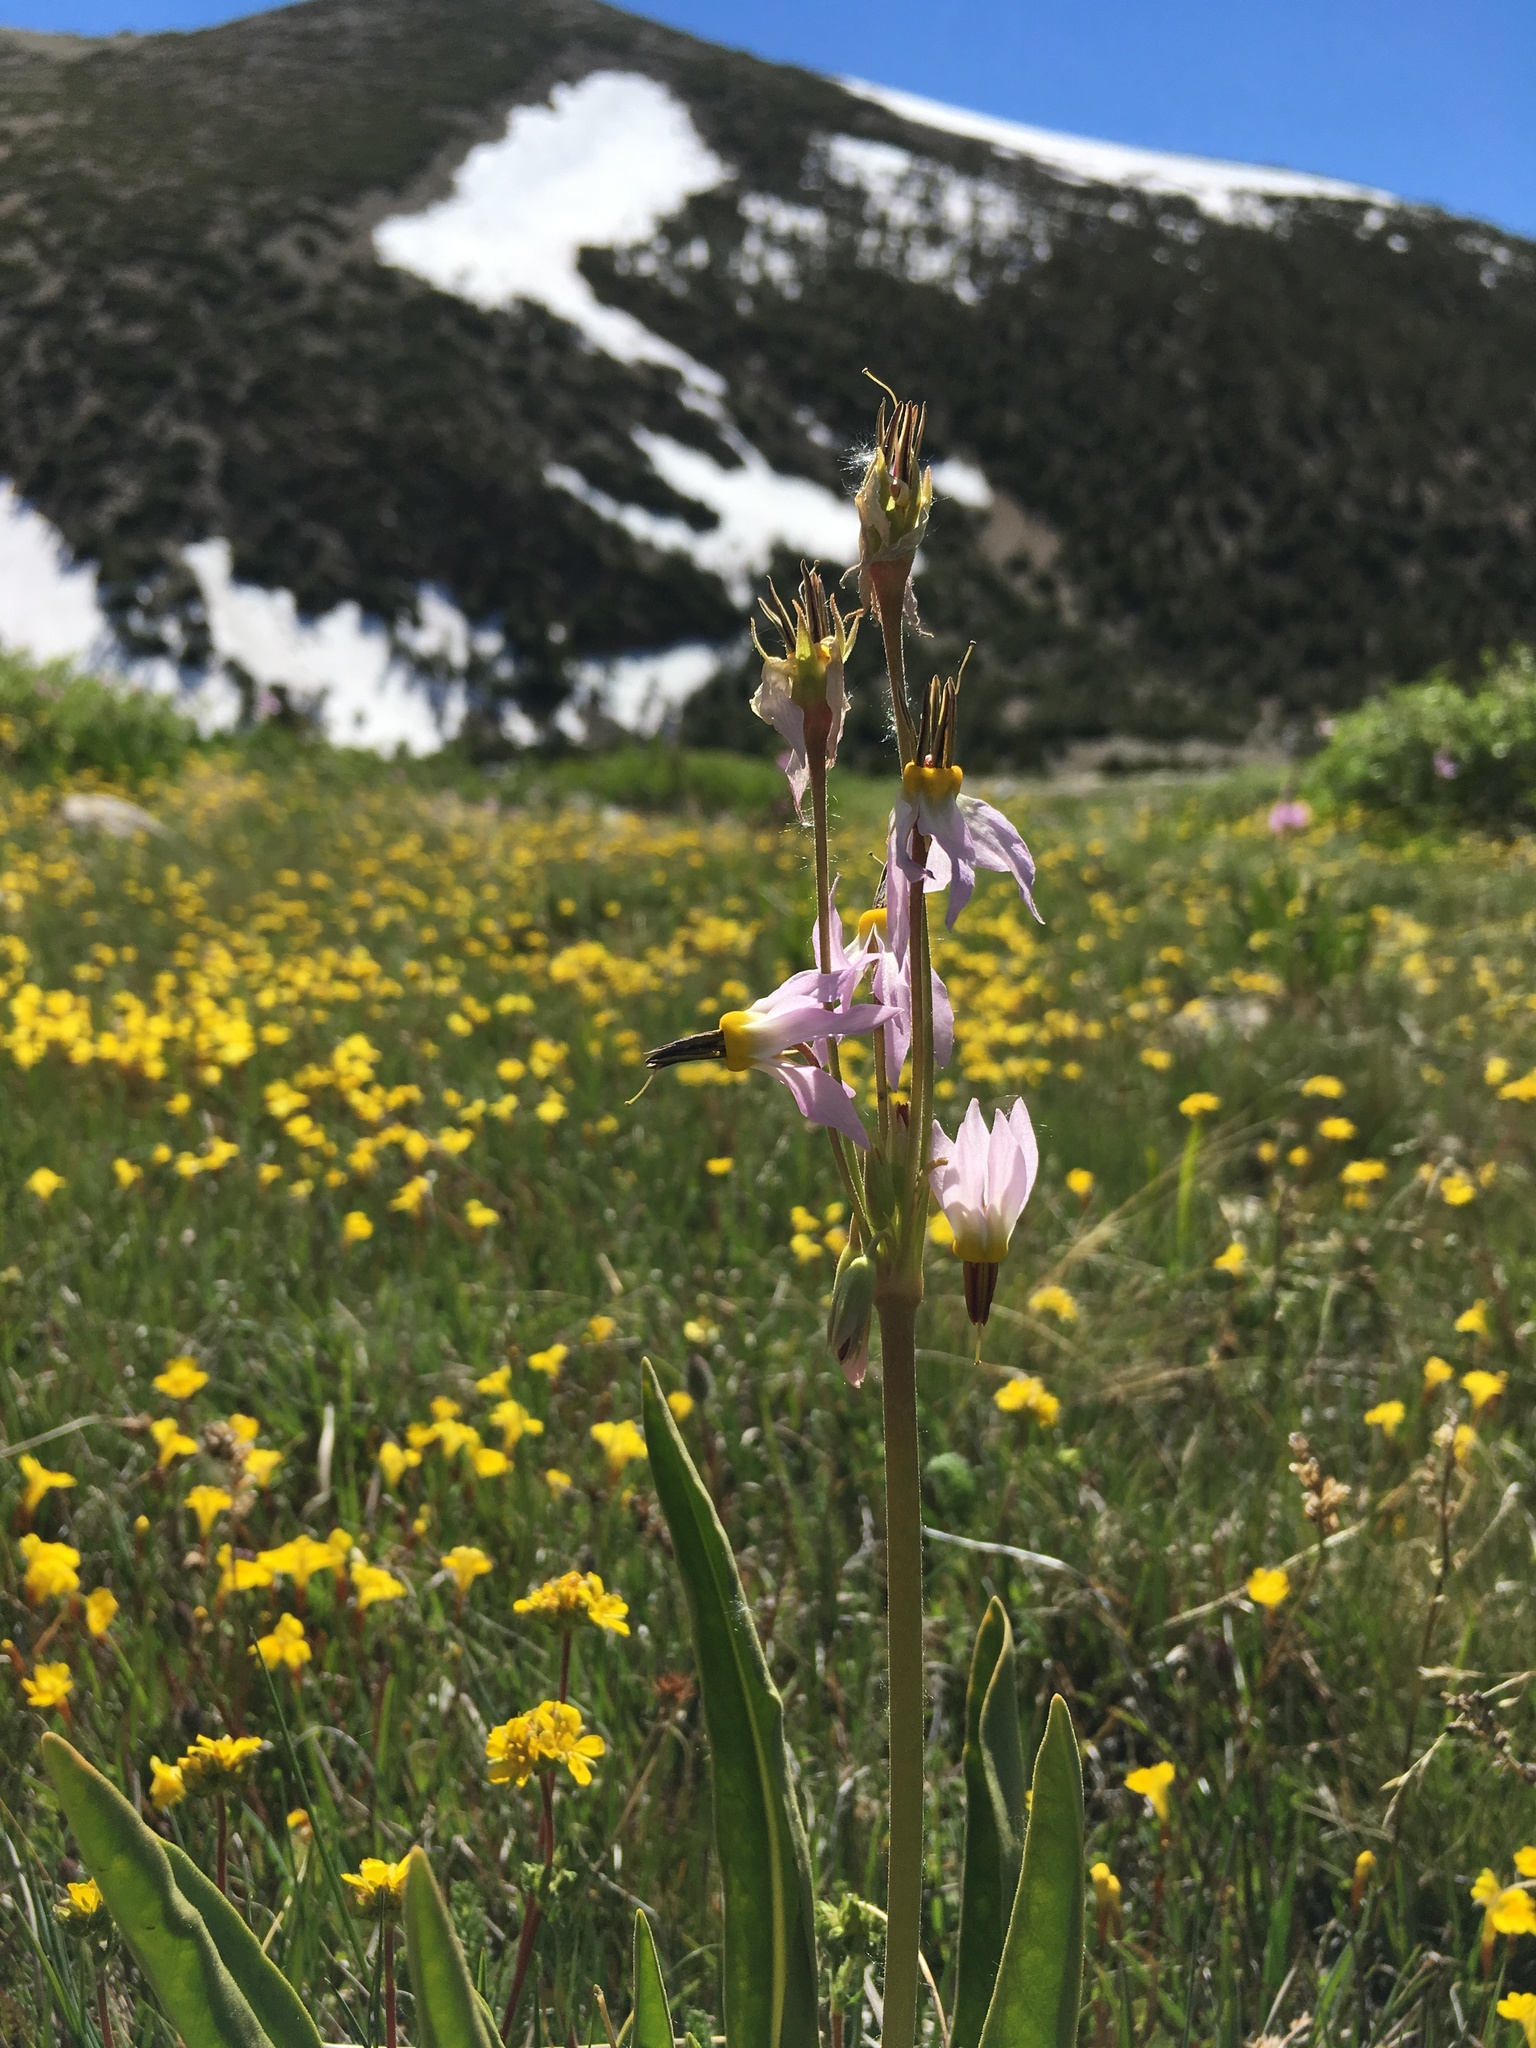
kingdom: Plantae
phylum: Tracheophyta
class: Magnoliopsida
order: Ericales
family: Primulaceae
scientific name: Primulaceae
